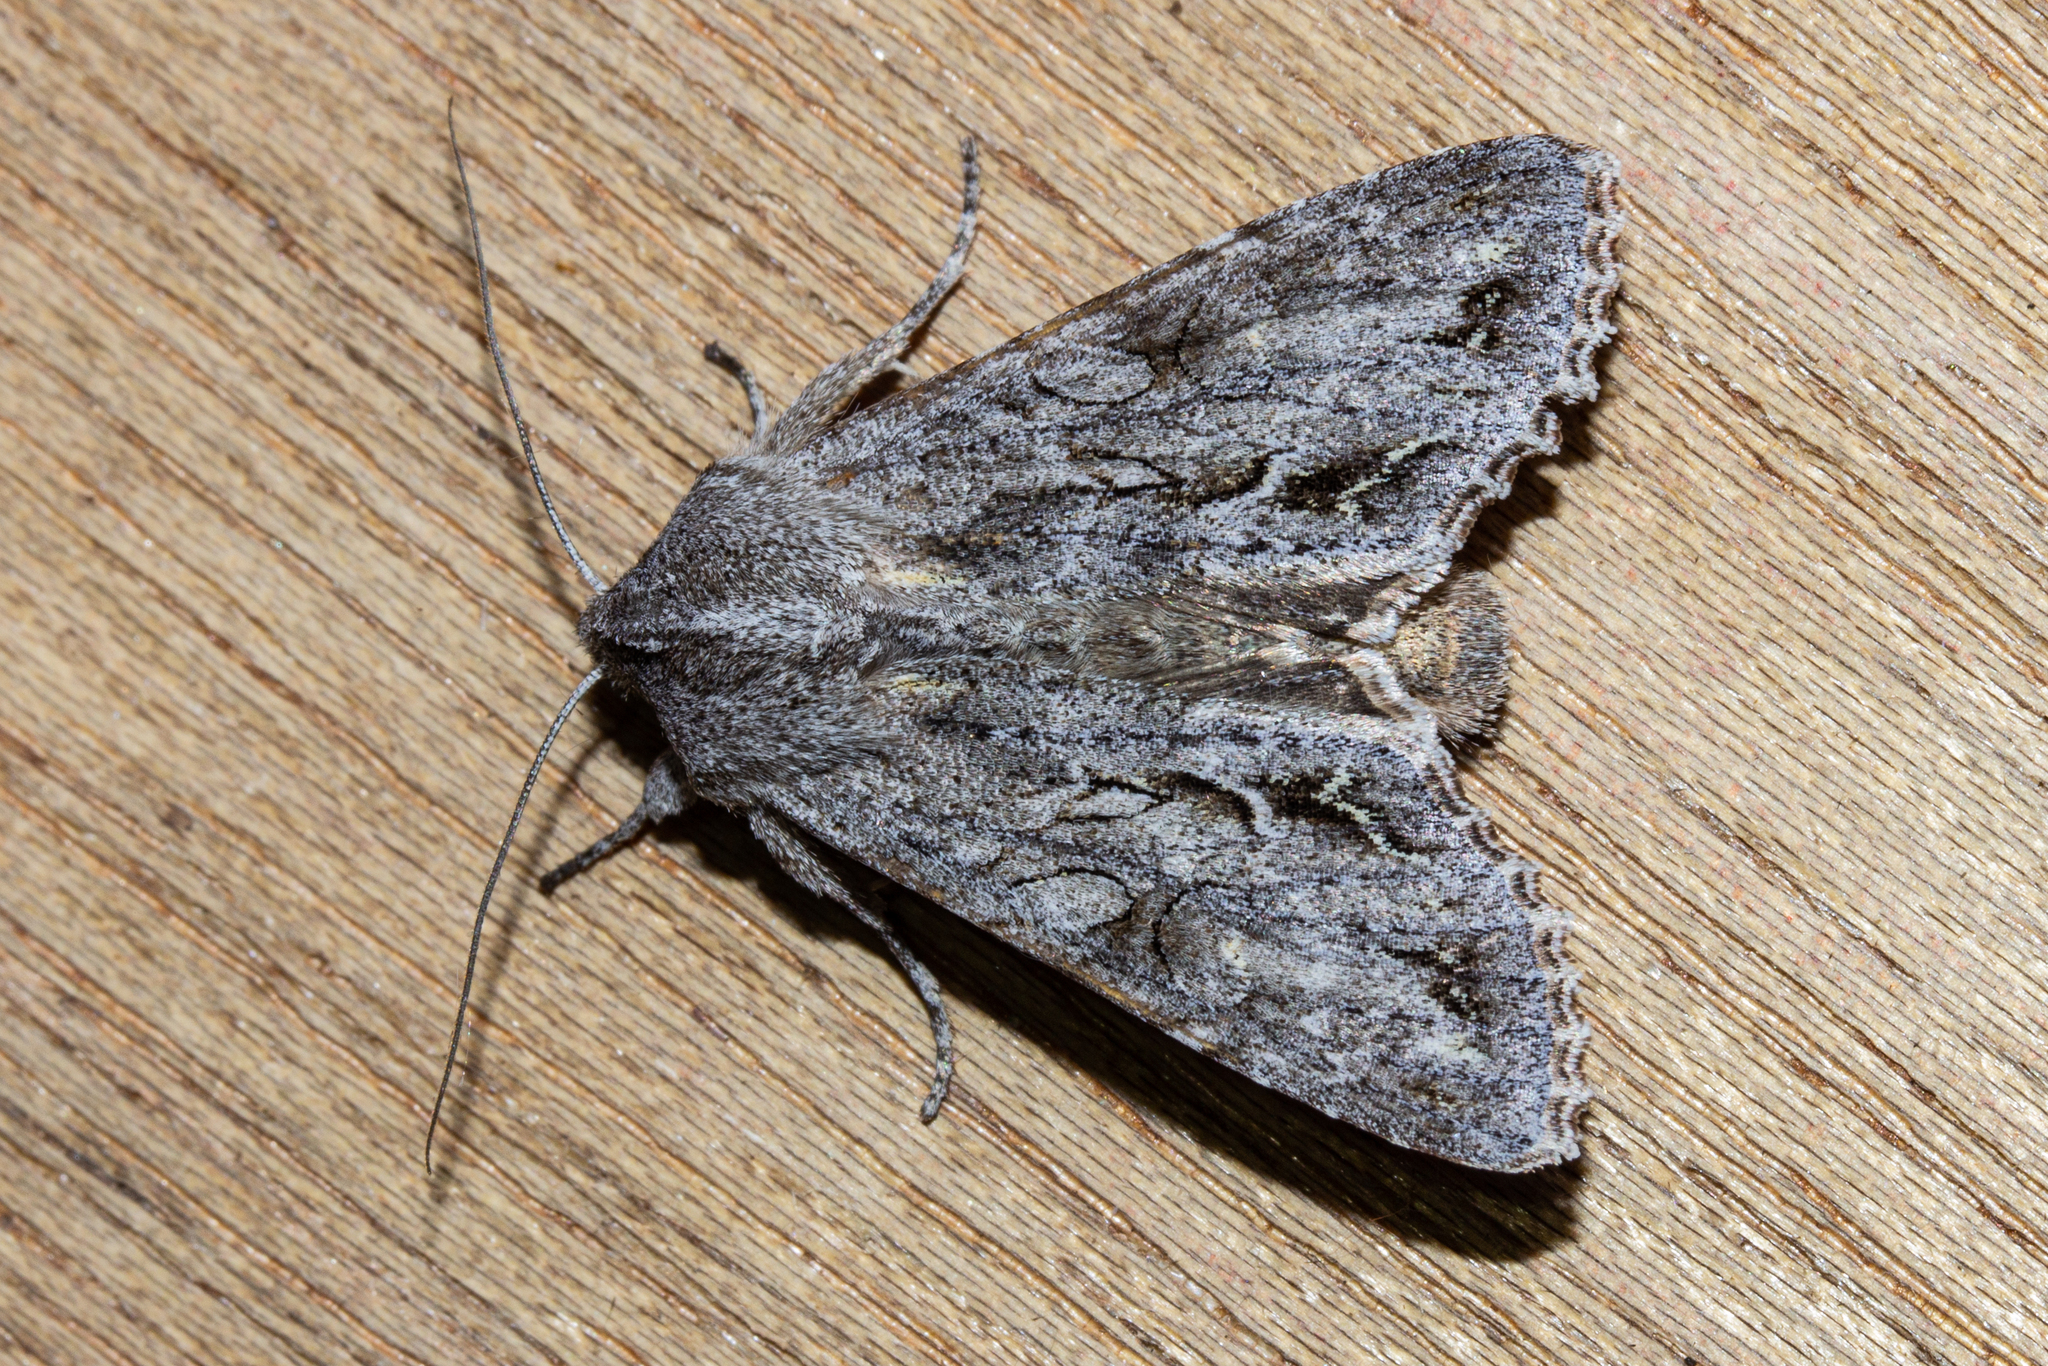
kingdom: Animalia
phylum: Arthropoda
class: Insecta
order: Lepidoptera
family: Noctuidae
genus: Ichneutica
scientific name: Ichneutica
